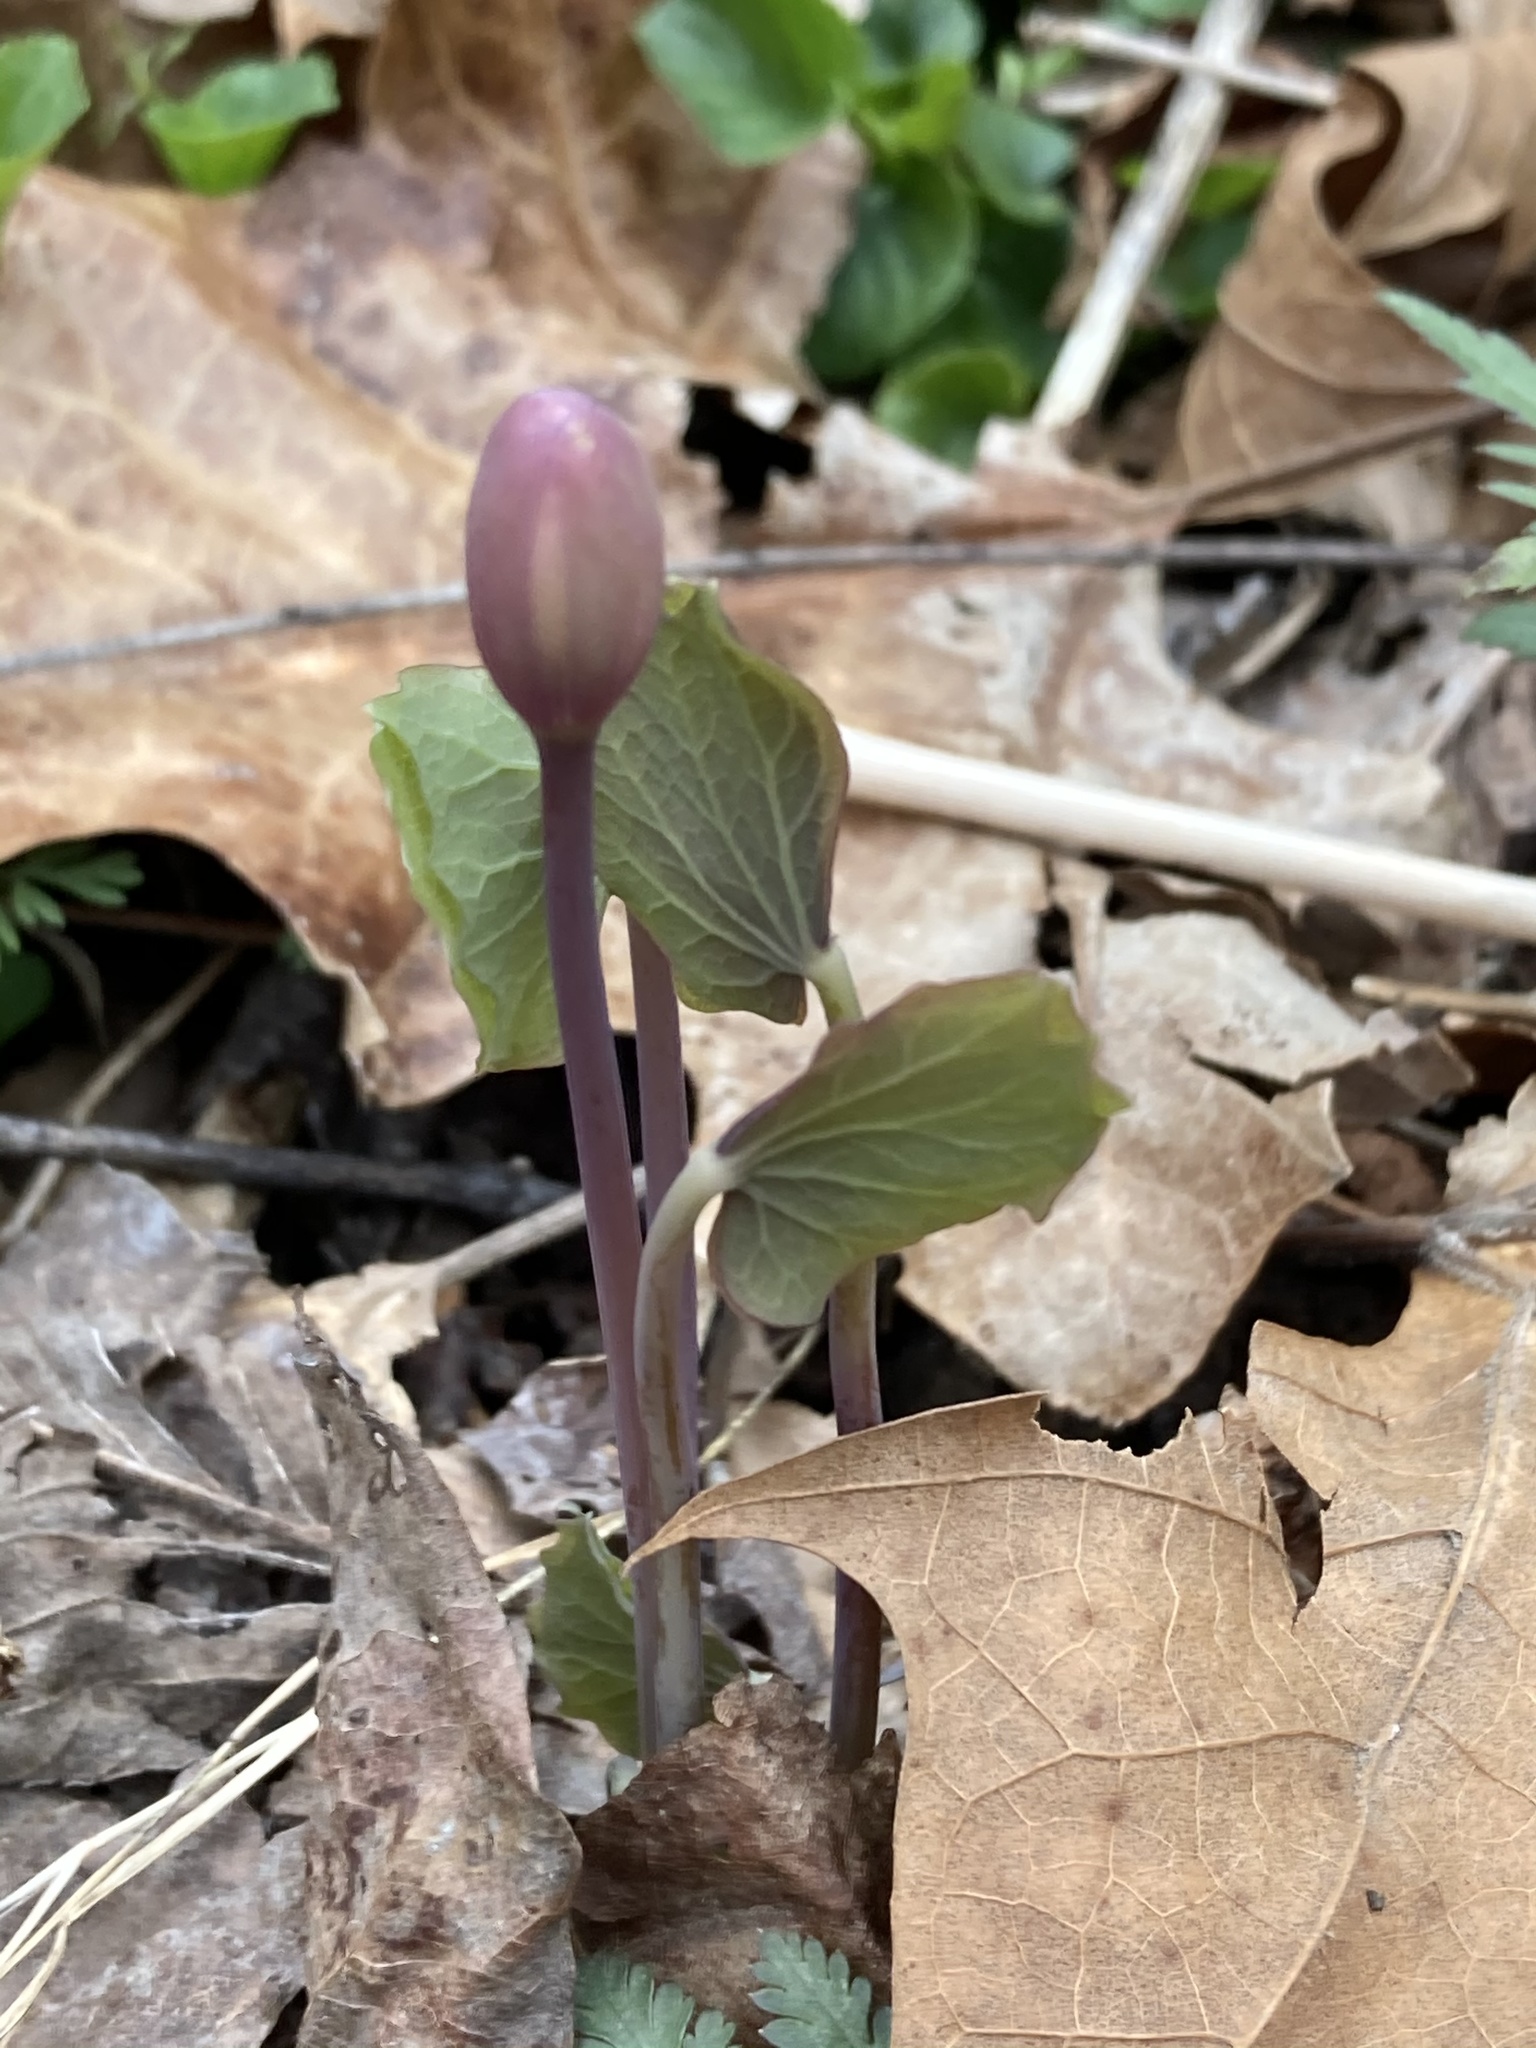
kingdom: Plantae
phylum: Tracheophyta
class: Magnoliopsida
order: Ranunculales
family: Berberidaceae
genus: Jeffersonia
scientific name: Jeffersonia diphylla
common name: Rheumatism-root
